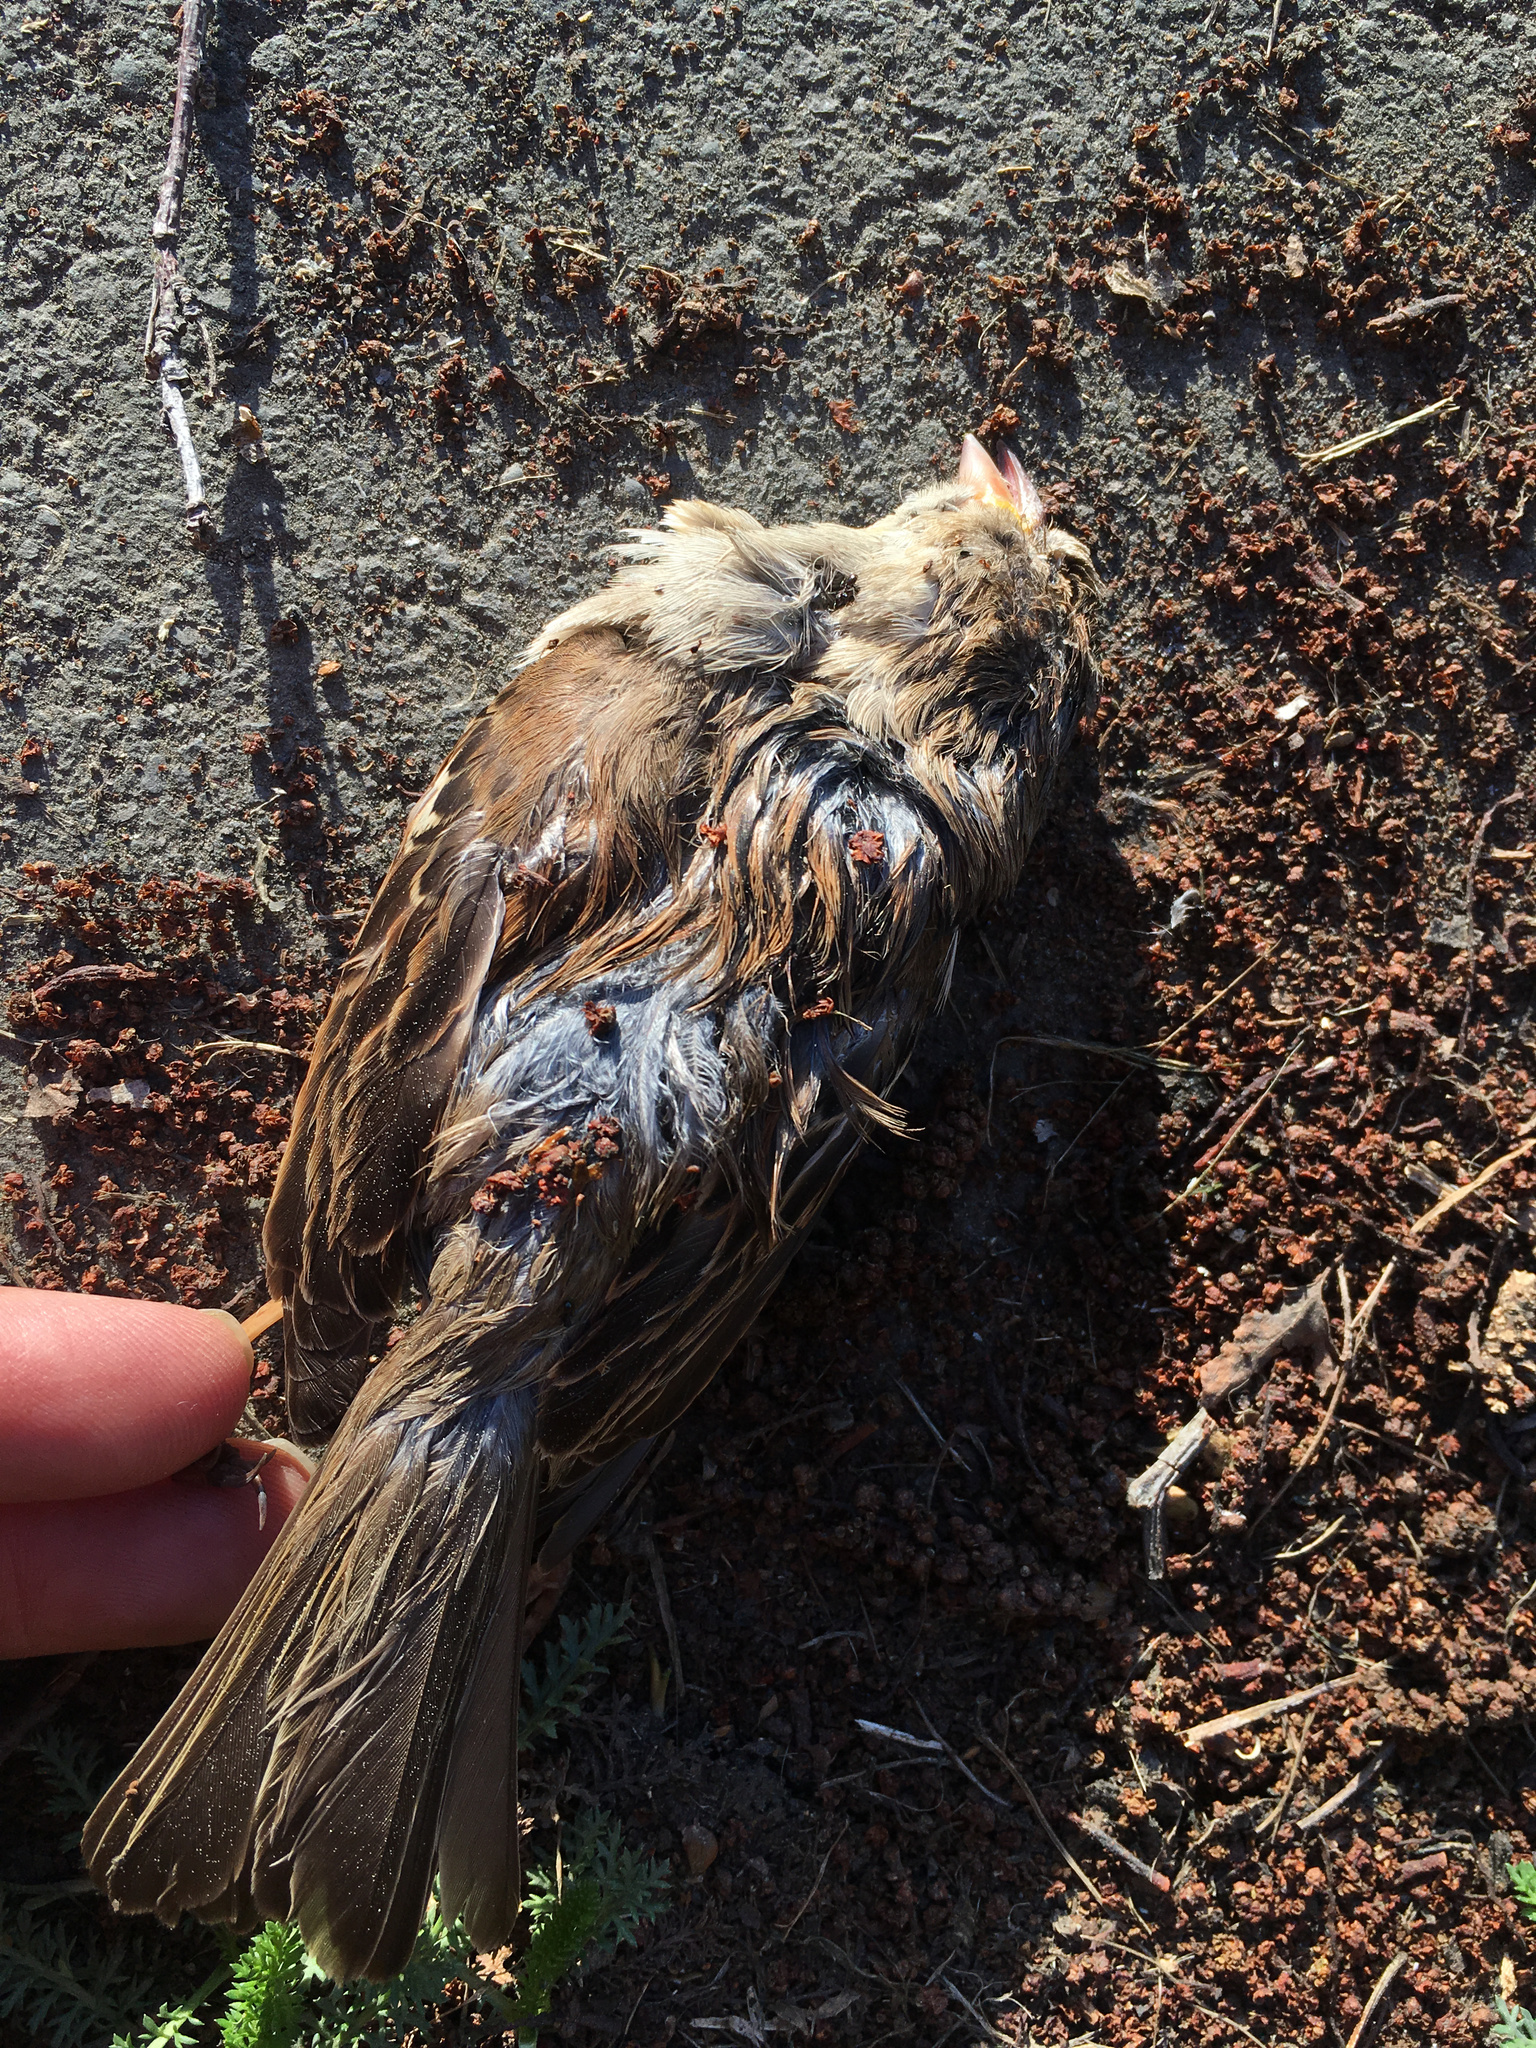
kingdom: Animalia
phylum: Chordata
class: Aves
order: Passeriformes
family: Passeridae
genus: Passer
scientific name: Passer domesticus
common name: House sparrow
